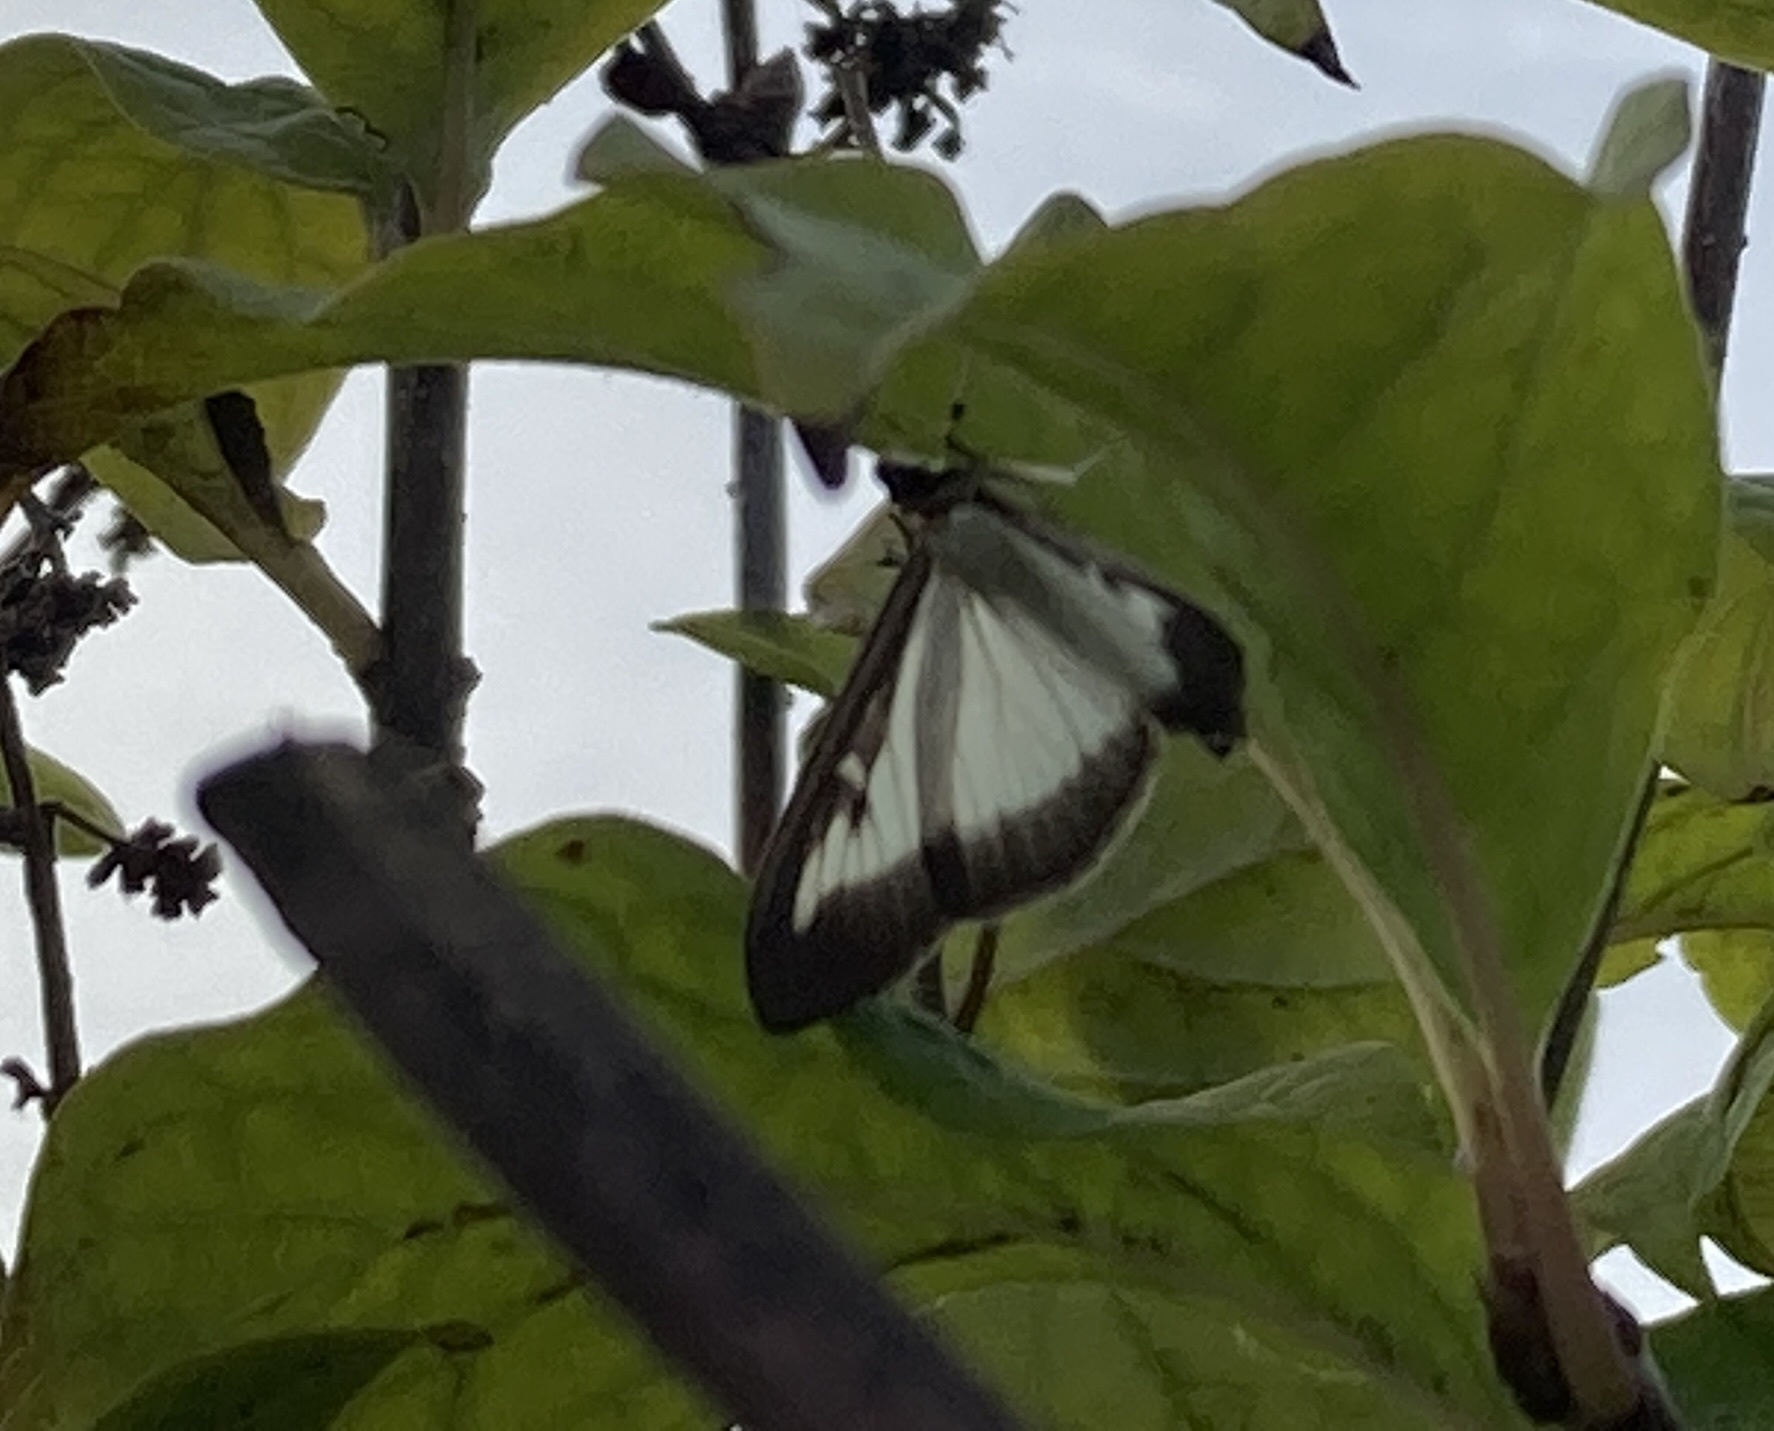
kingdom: Animalia
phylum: Arthropoda
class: Insecta
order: Lepidoptera
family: Crambidae
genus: Cydalima
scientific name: Cydalima perspectalis
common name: Box tree moth
